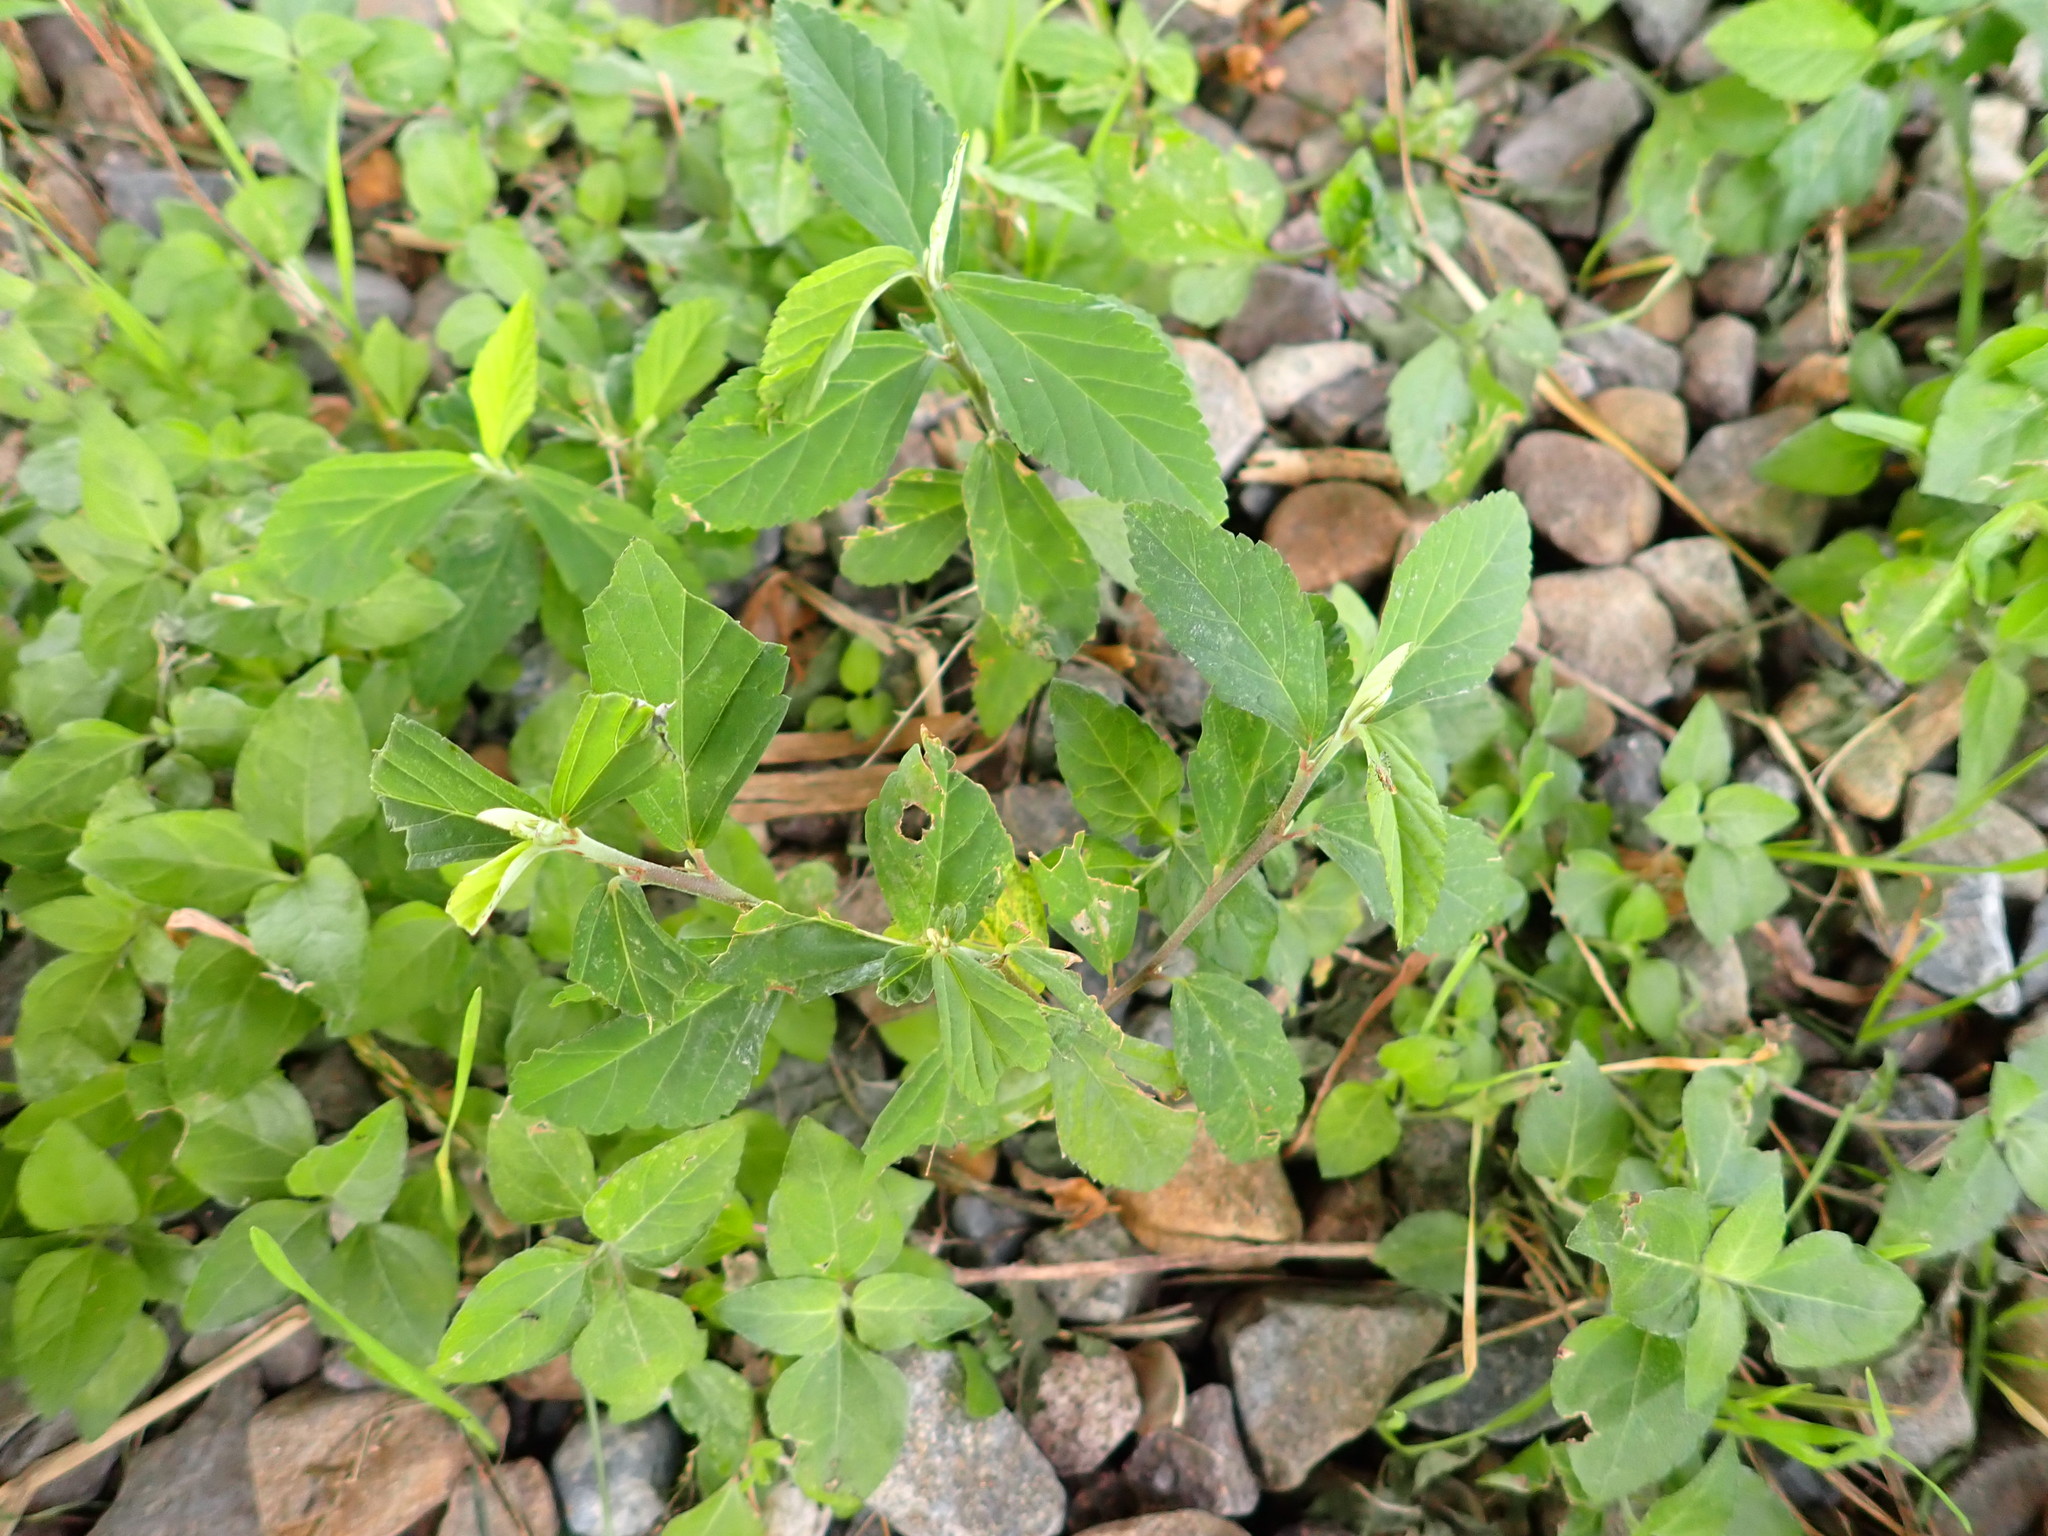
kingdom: Plantae
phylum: Tracheophyta
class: Magnoliopsida
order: Malvales
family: Malvaceae
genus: Sida
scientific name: Sida rhombifolia
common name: Queensland-hemp
